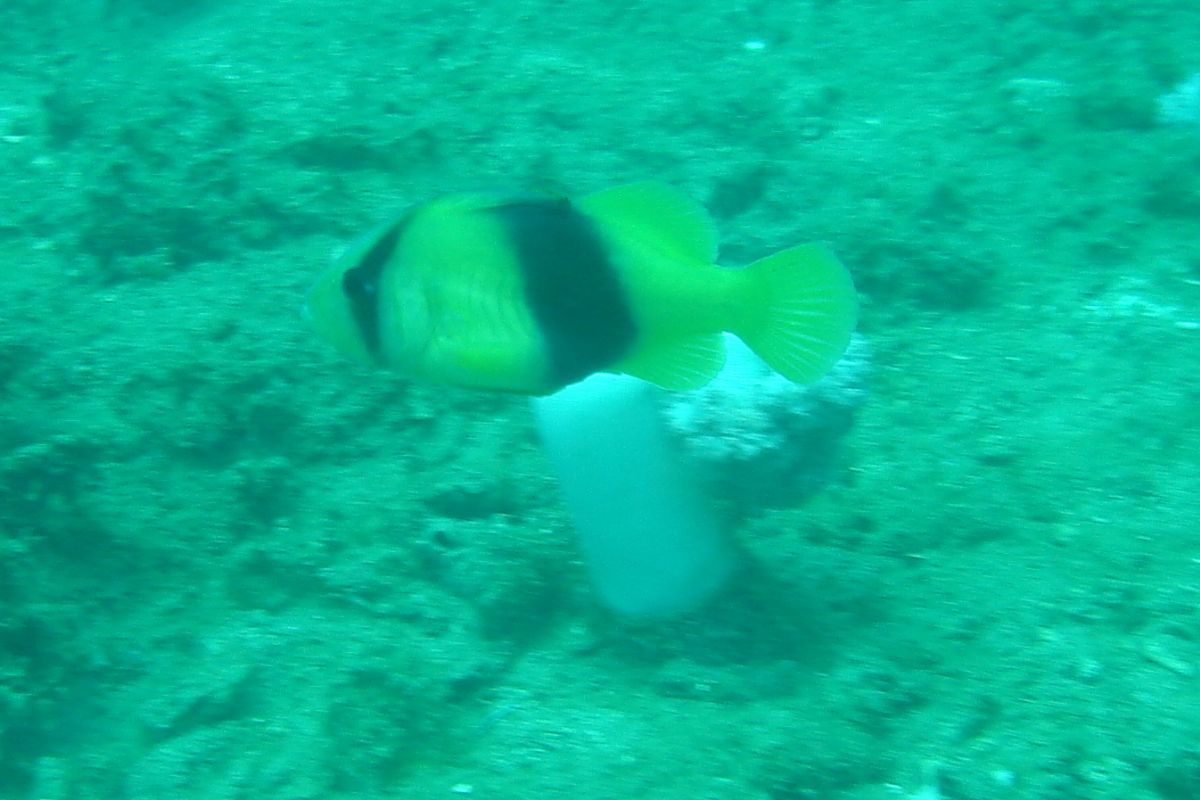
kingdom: Animalia
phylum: Chordata
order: Perciformes
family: Serranidae
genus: Diploprion
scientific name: Diploprion bifasciatum
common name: Barred soapfish
